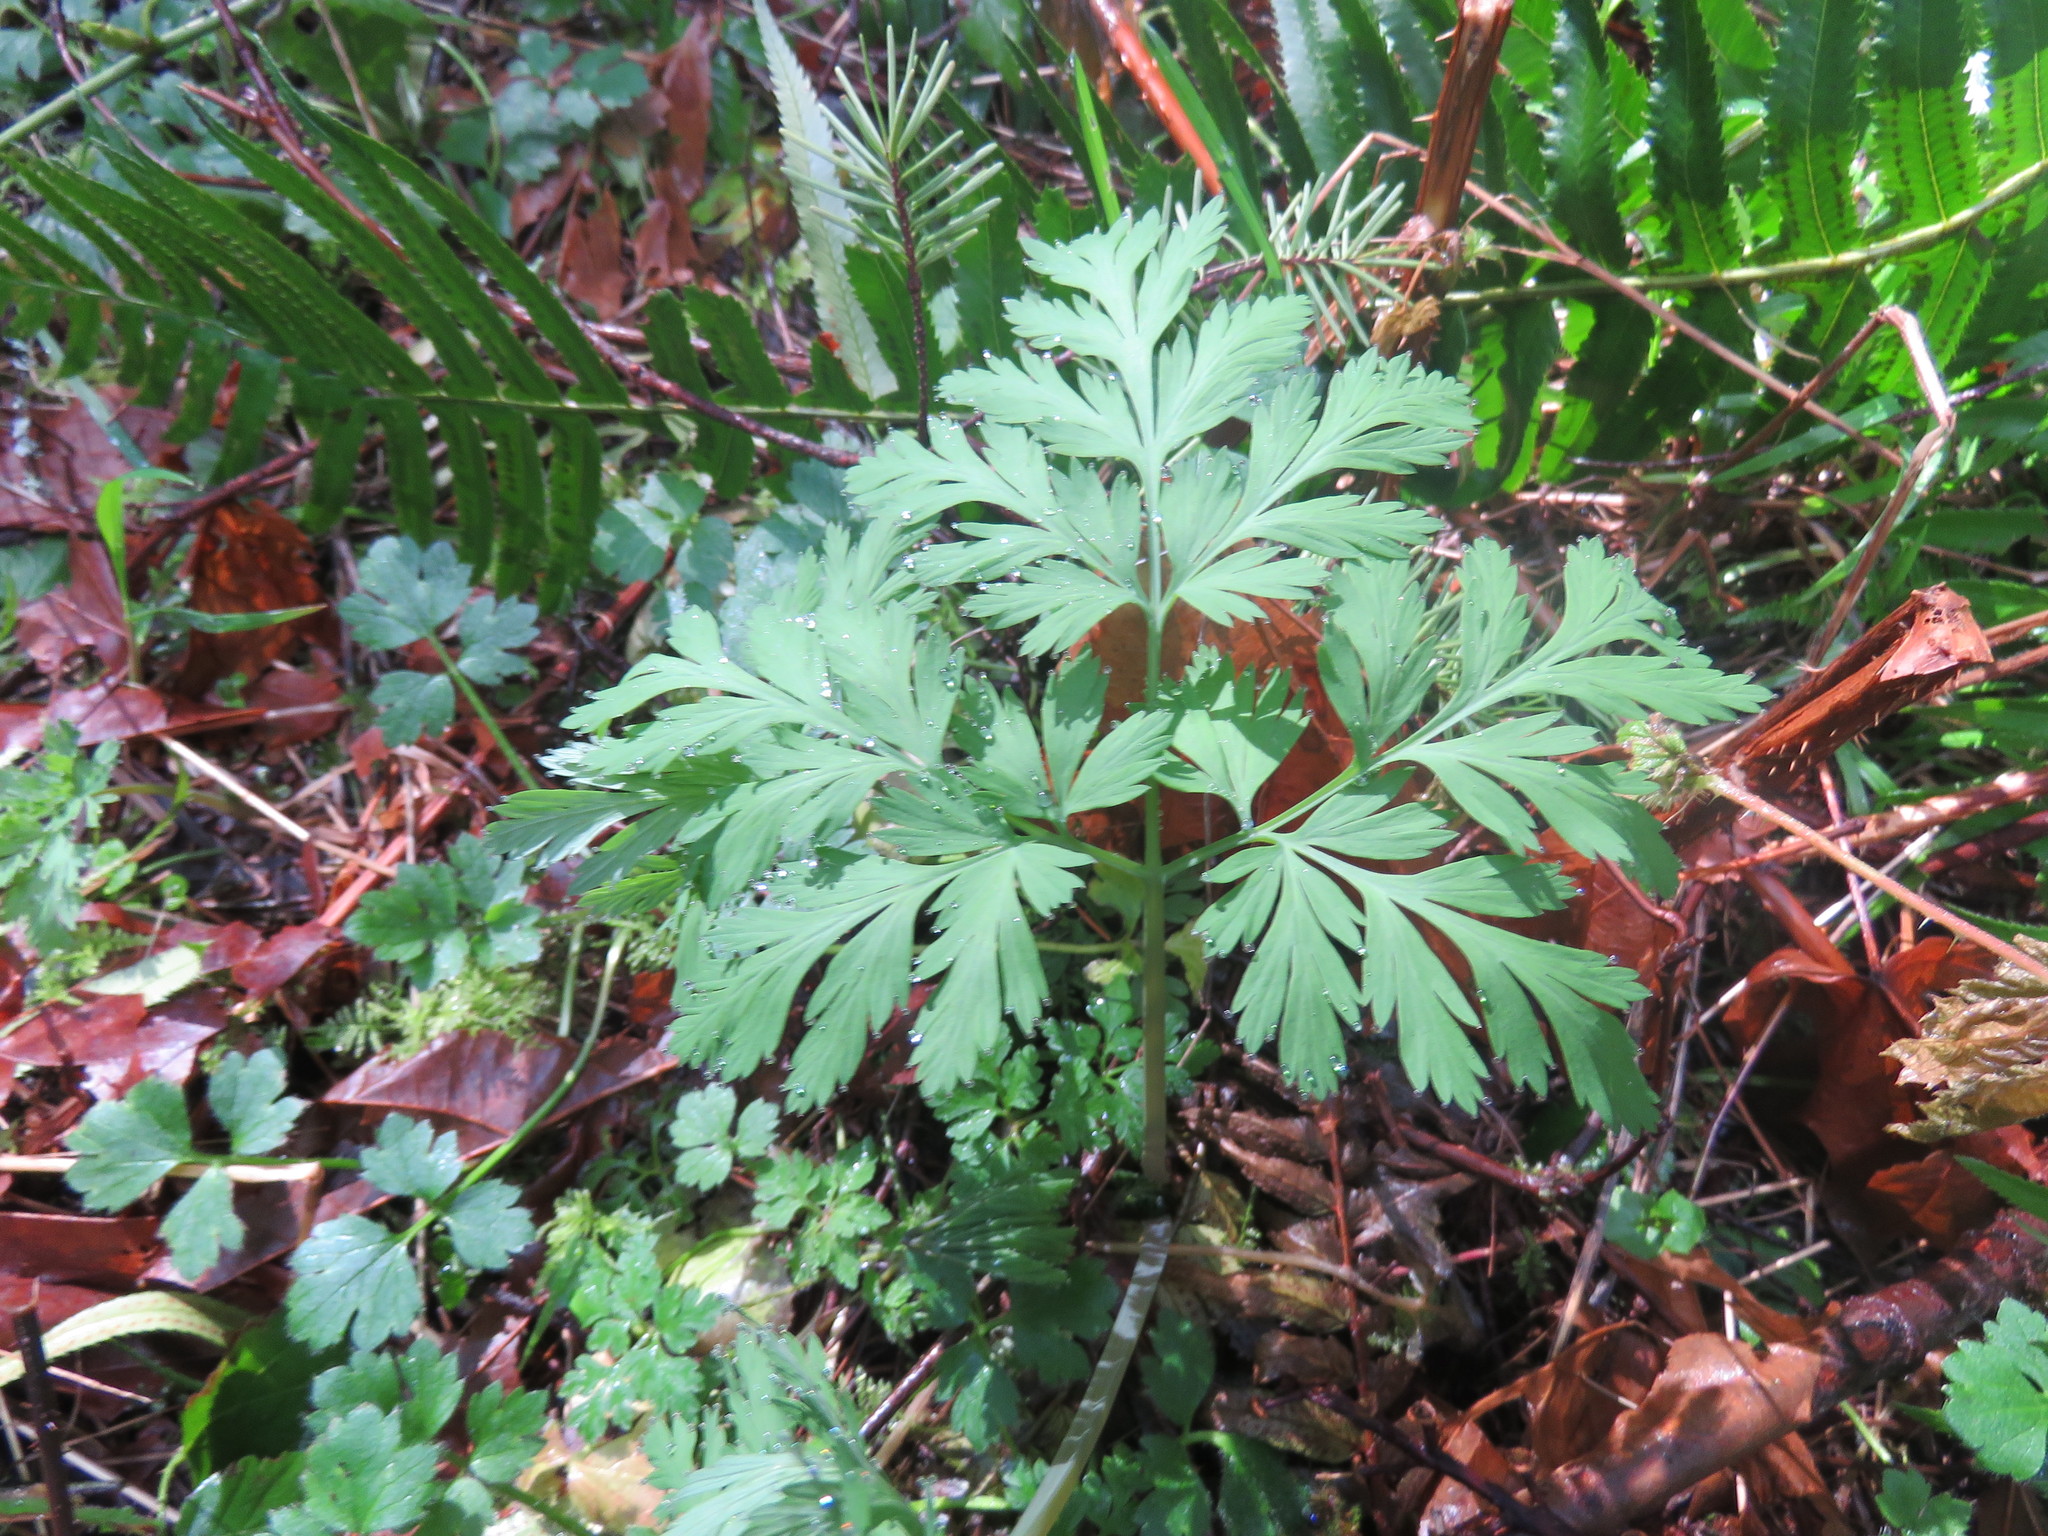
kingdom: Plantae
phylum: Tracheophyta
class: Magnoliopsida
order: Ranunculales
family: Papaveraceae
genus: Dicentra
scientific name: Dicentra formosa
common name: Bleeding-heart
